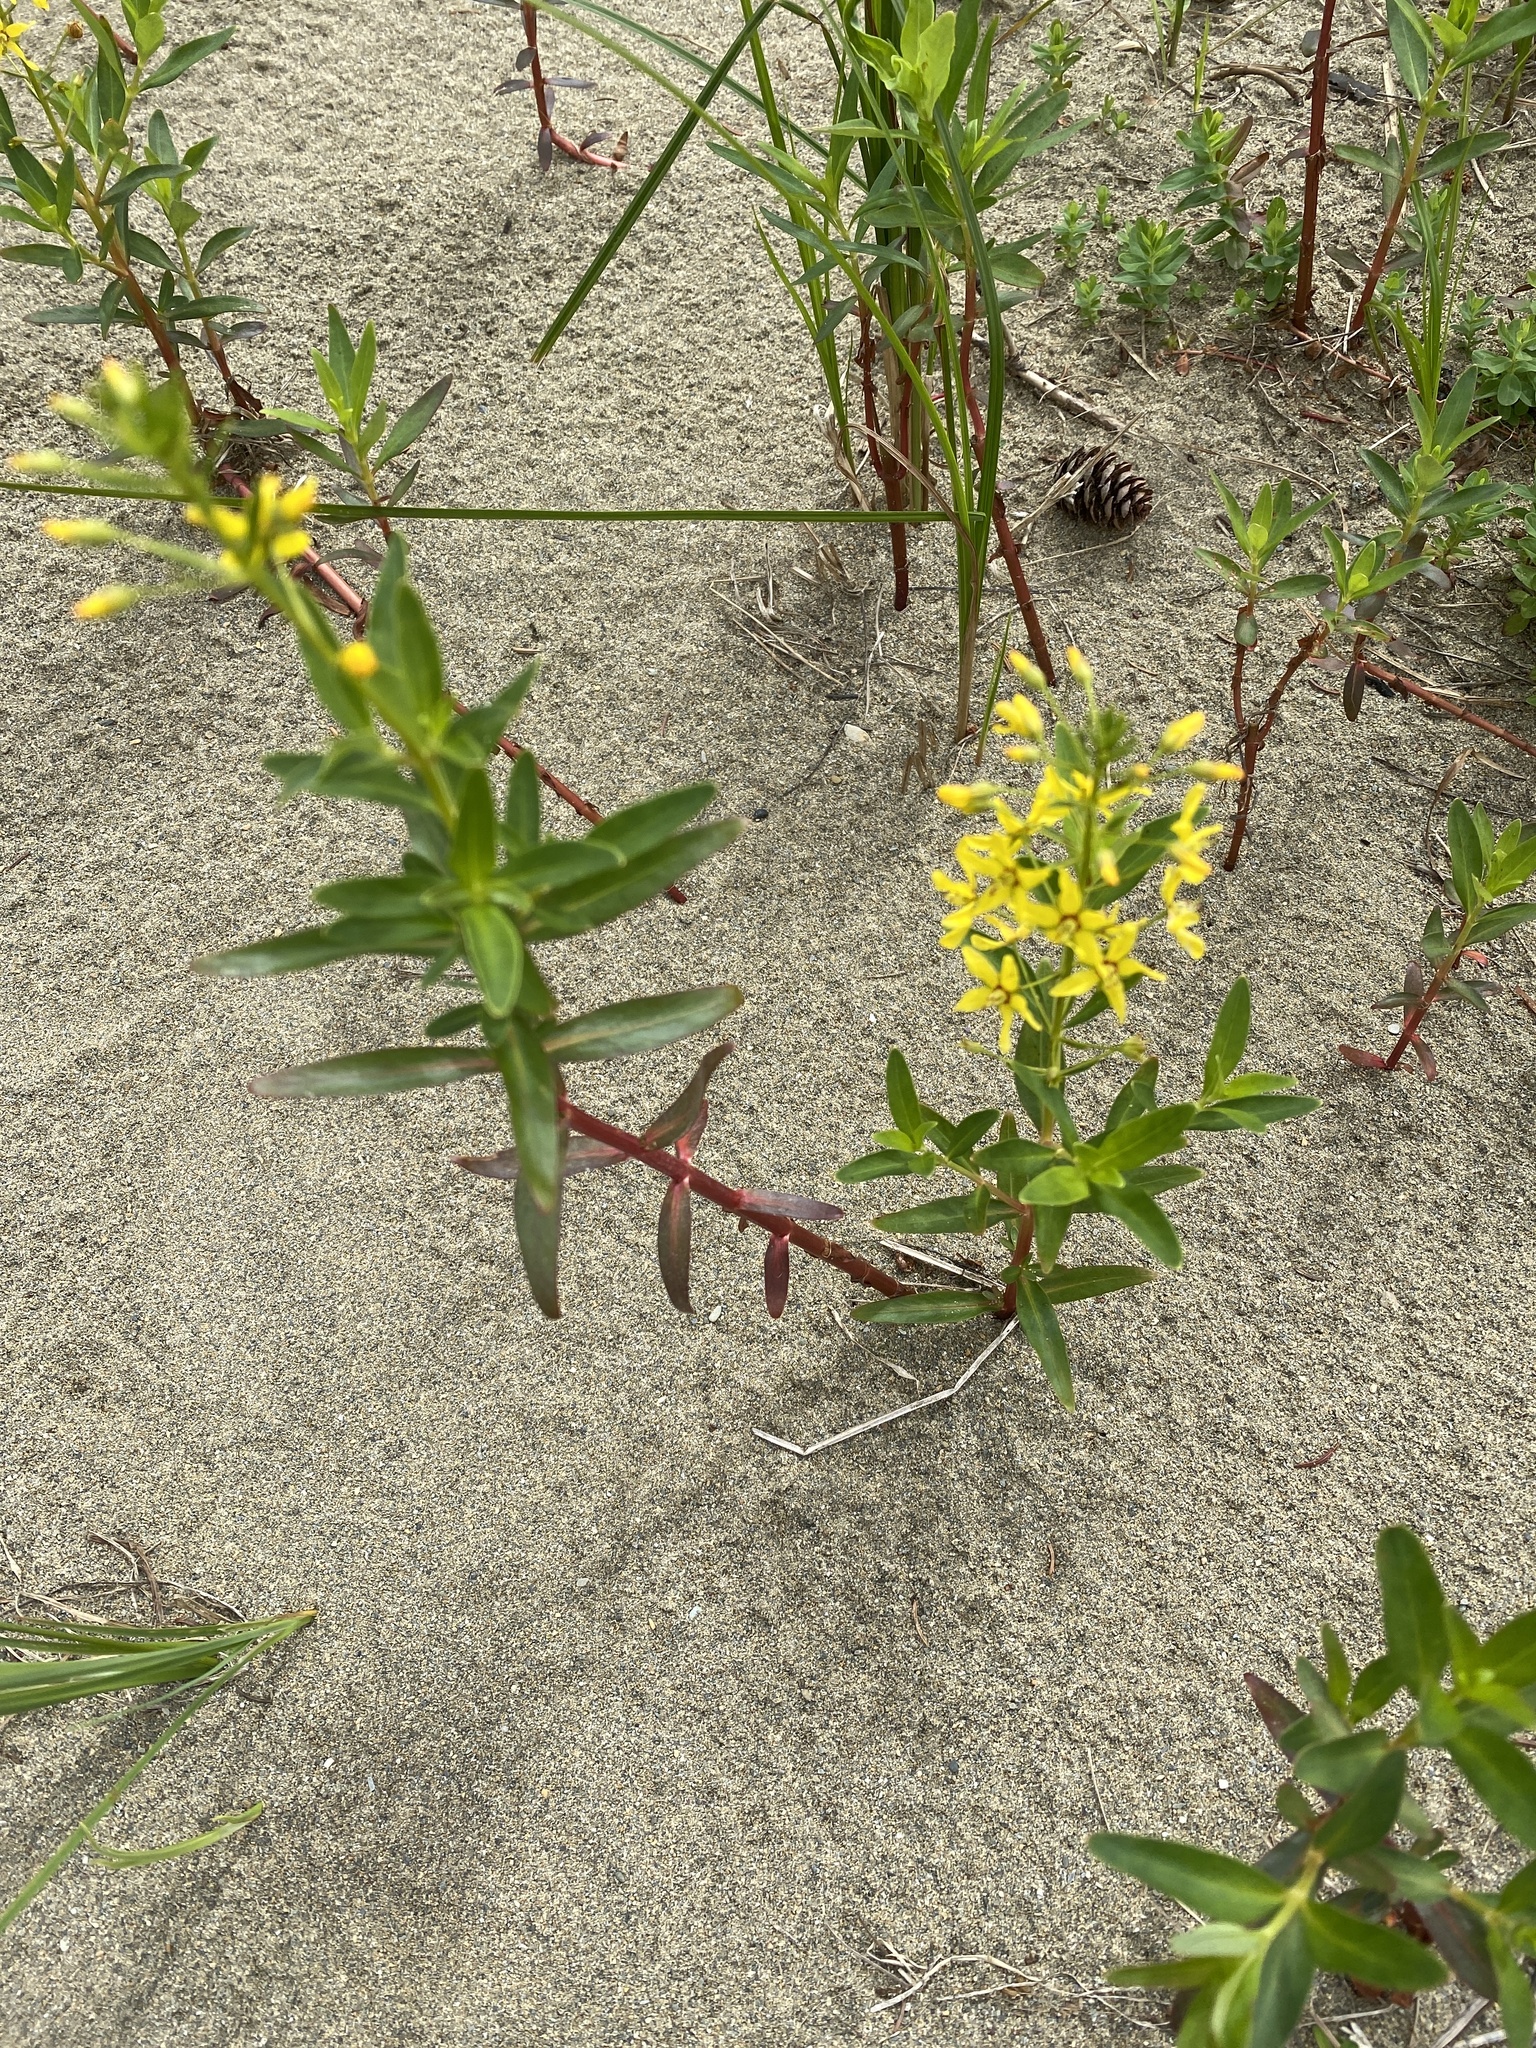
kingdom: Plantae
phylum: Tracheophyta
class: Magnoliopsida
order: Ericales
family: Primulaceae
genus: Lysimachia
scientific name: Lysimachia terrestris
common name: Lake loosestrife
